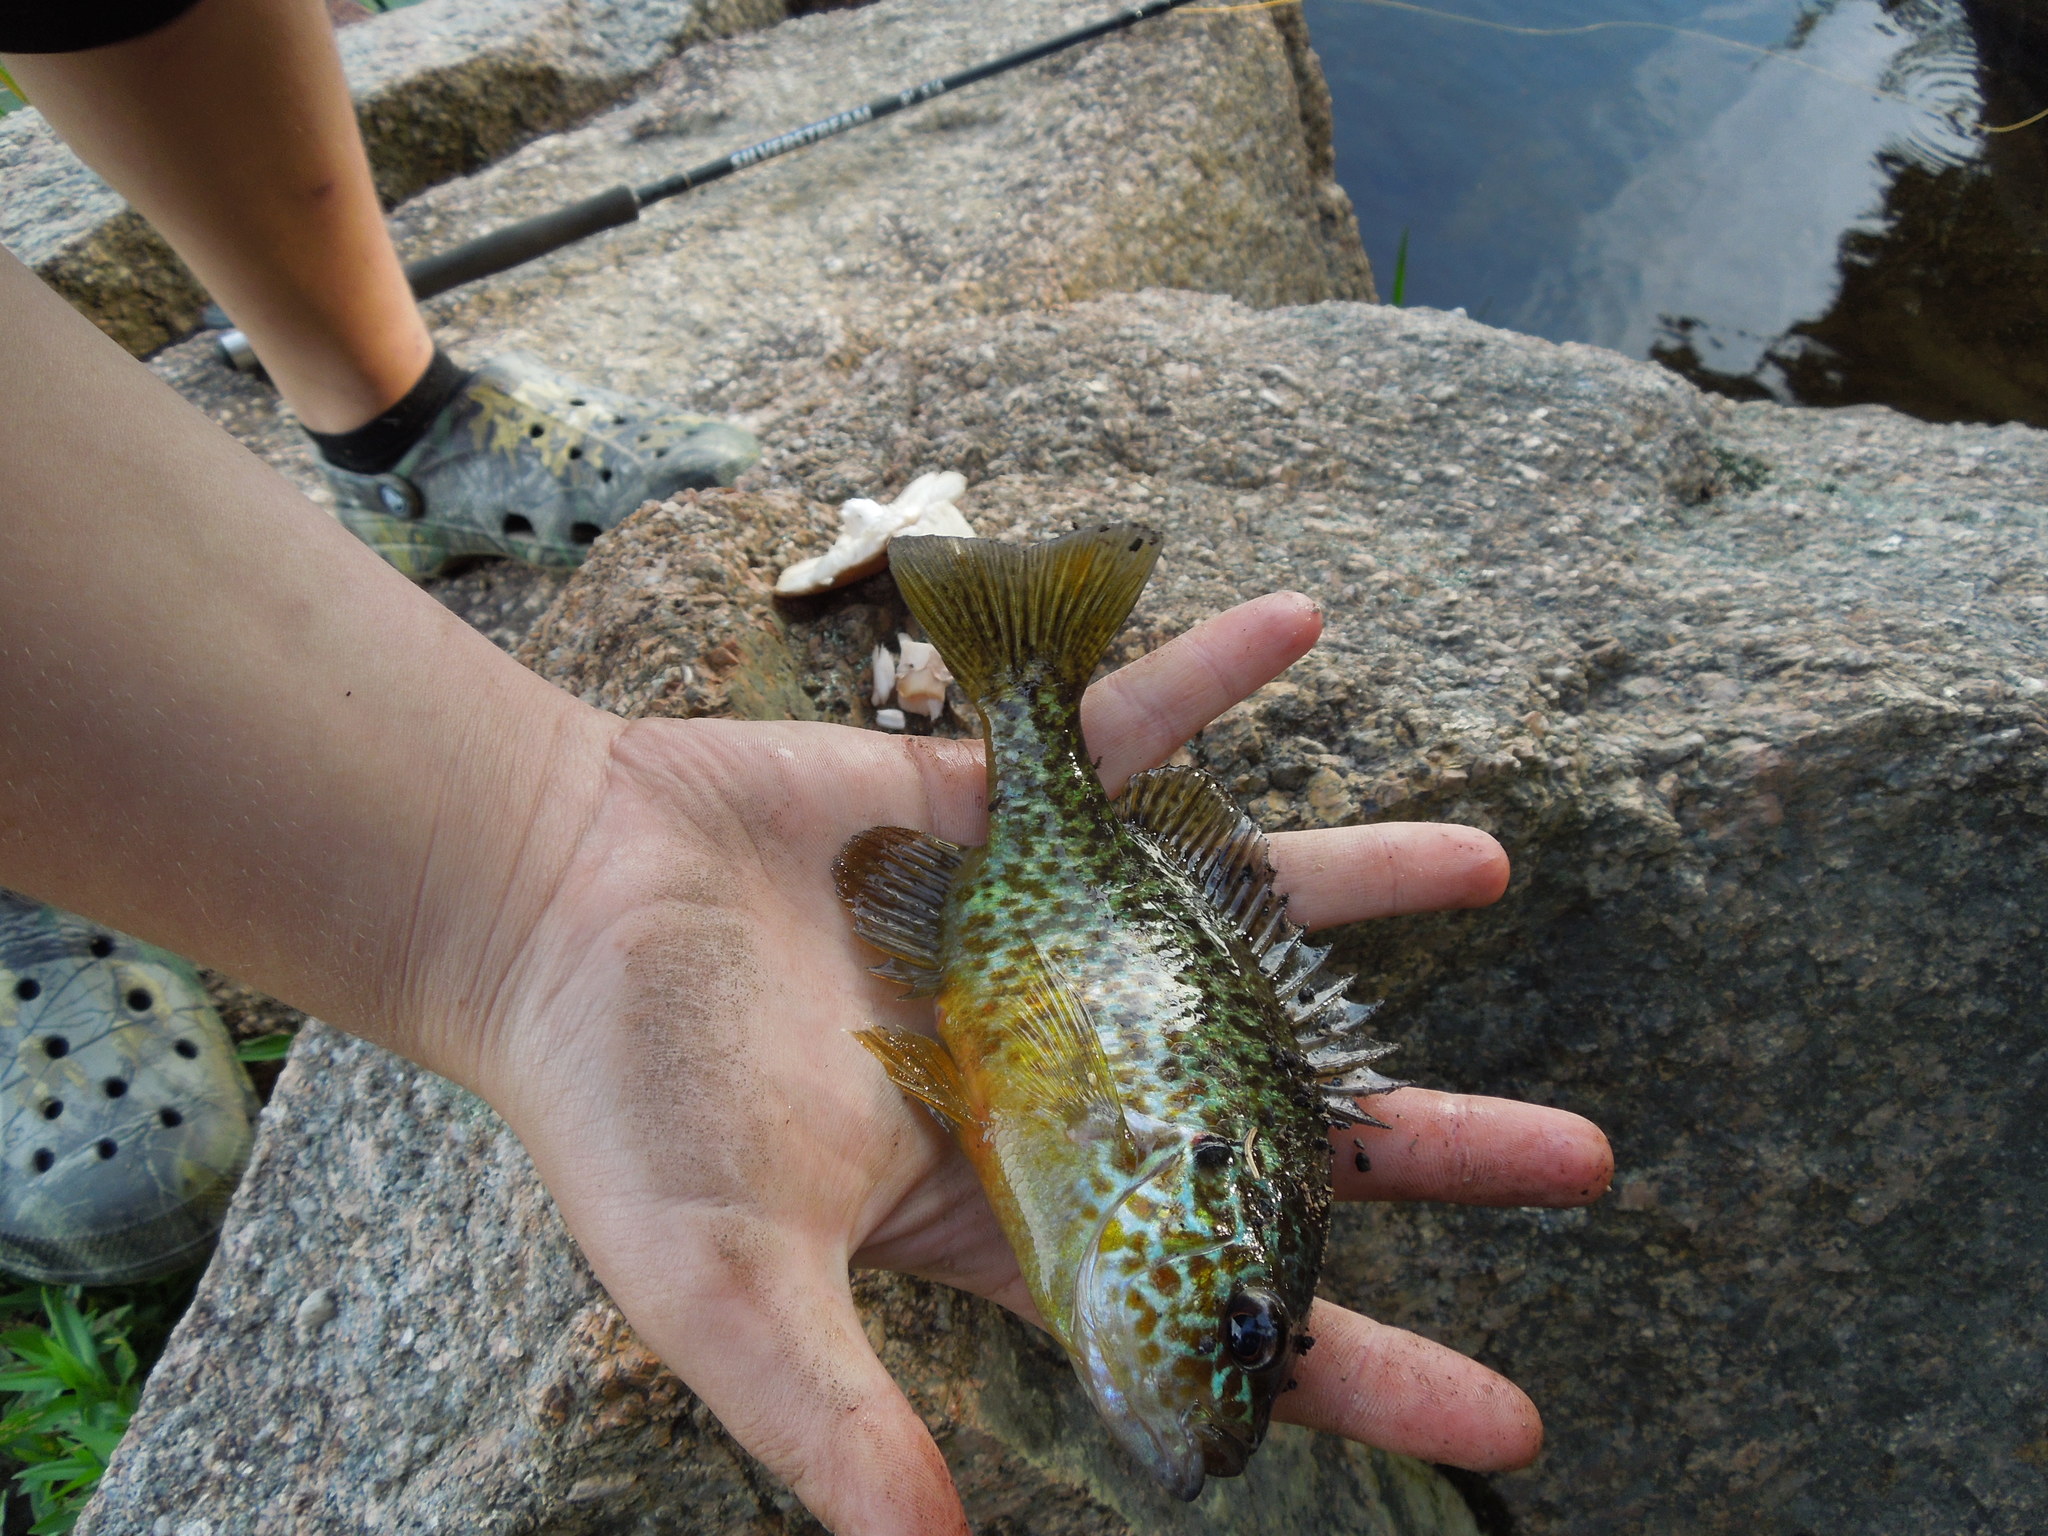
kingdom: Animalia
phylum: Chordata
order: Perciformes
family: Centrarchidae
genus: Lepomis
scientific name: Lepomis gibbosus
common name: Pumpkinseed
